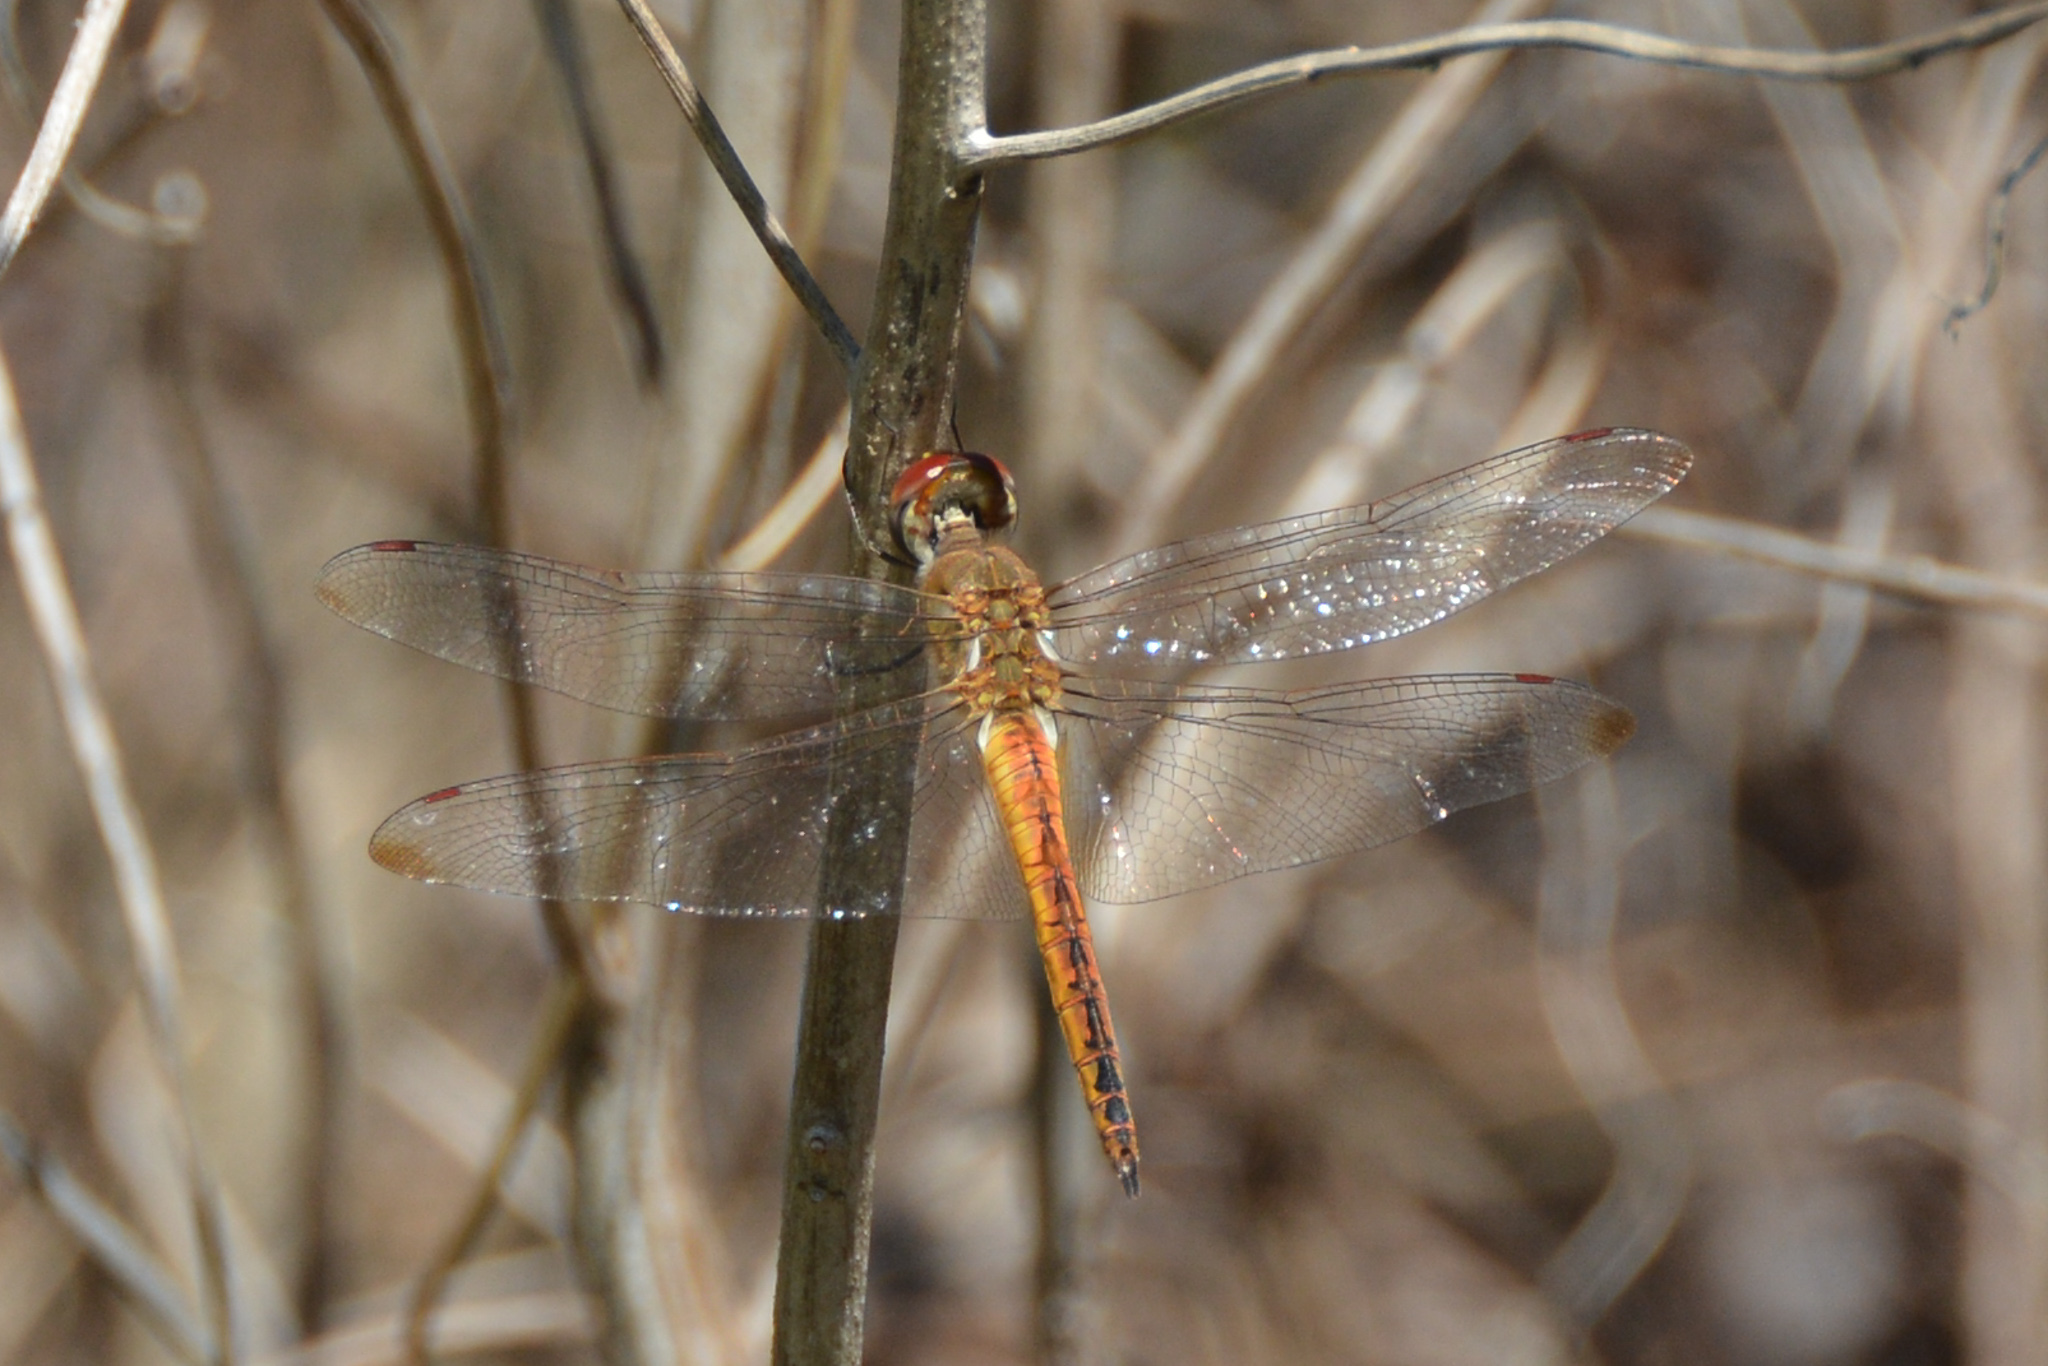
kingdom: Animalia
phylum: Arthropoda
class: Insecta
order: Odonata
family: Libellulidae
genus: Pantala
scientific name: Pantala flavescens
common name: Wandering glider
